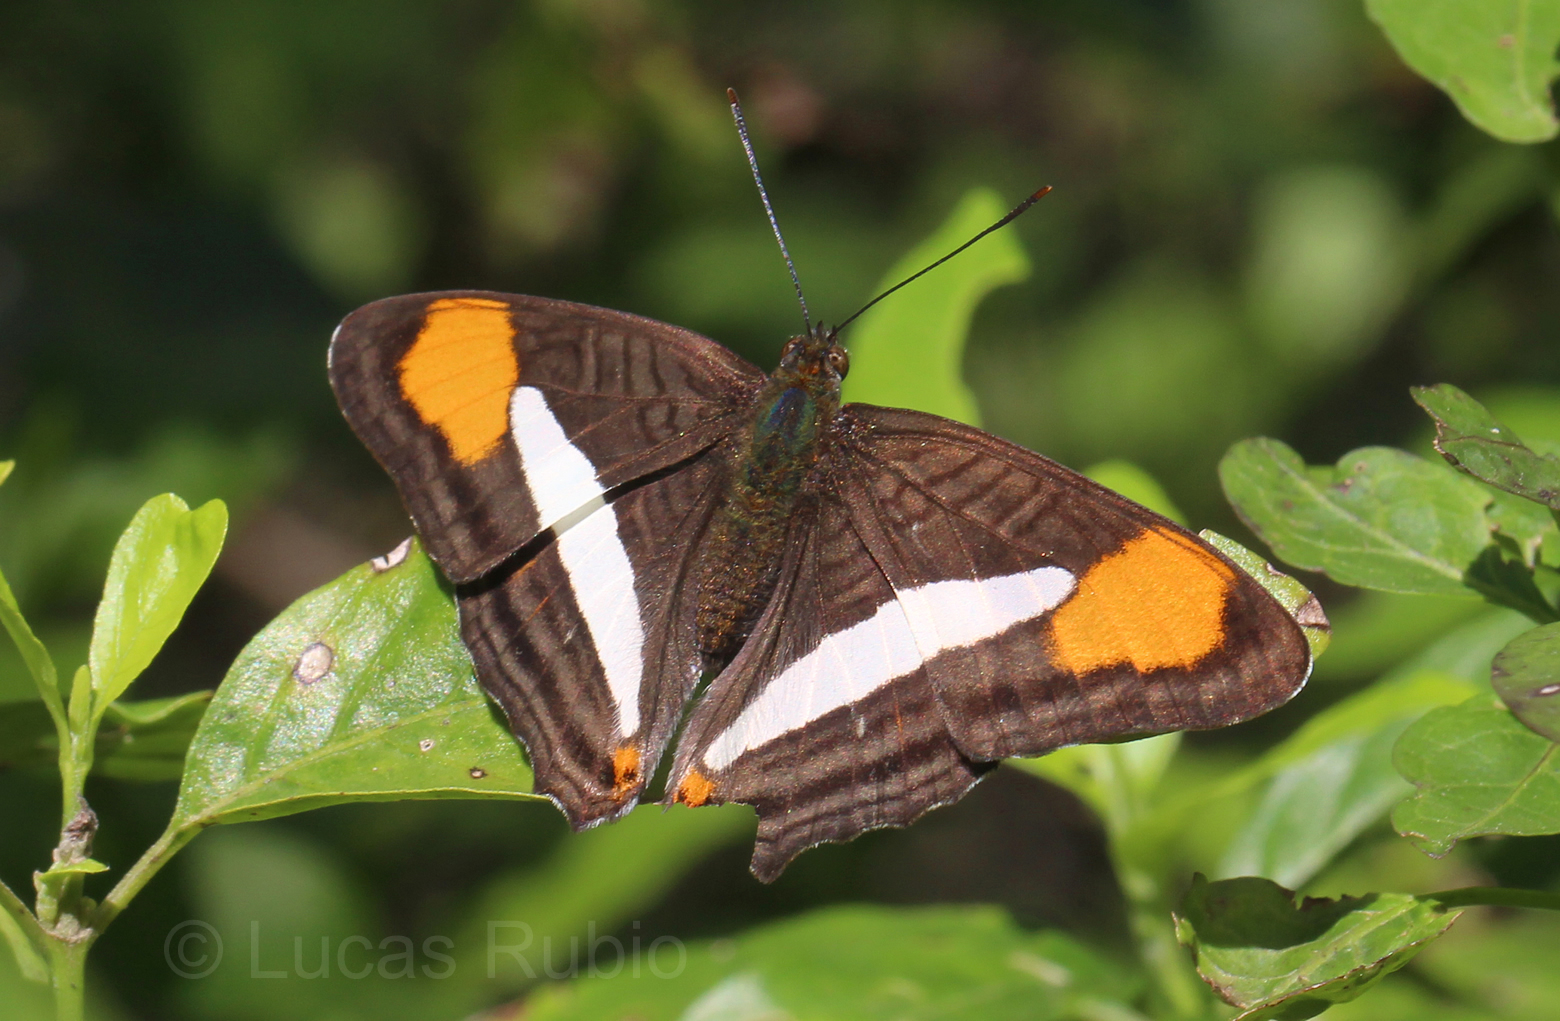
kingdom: Animalia
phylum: Arthropoda
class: Insecta
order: Lepidoptera
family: Nymphalidae
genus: Limenitis
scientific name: Limenitis thessalia
